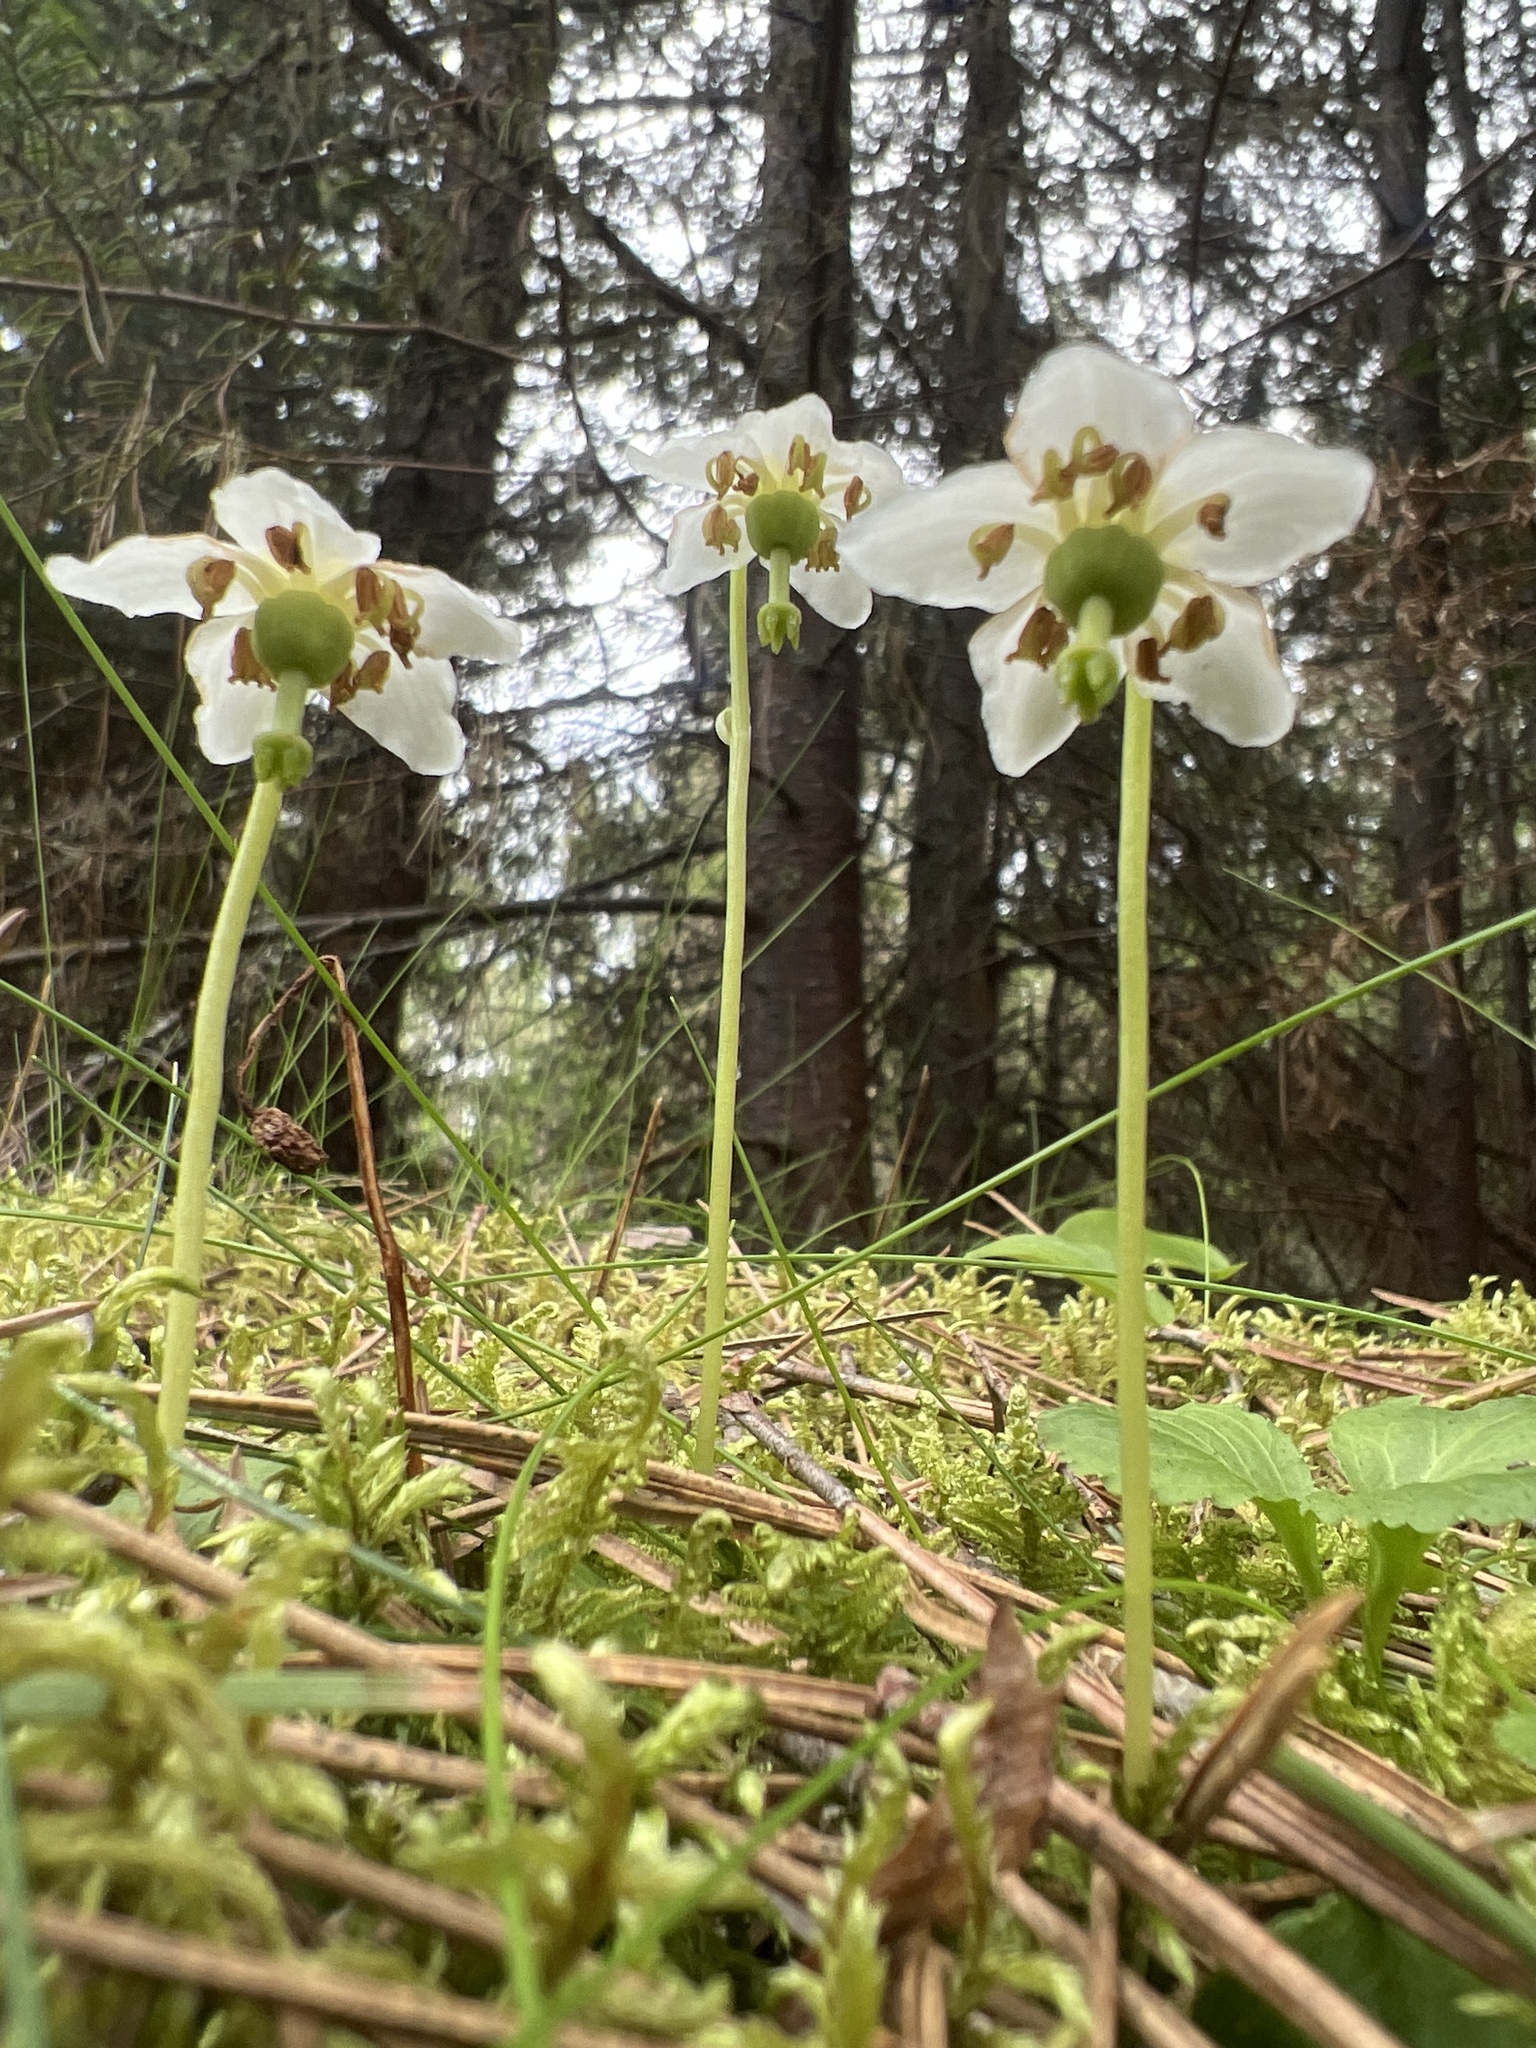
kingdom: Plantae
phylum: Tracheophyta
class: Magnoliopsida
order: Ericales
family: Ericaceae
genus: Moneses
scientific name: Moneses uniflora
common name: One-flowered wintergreen
